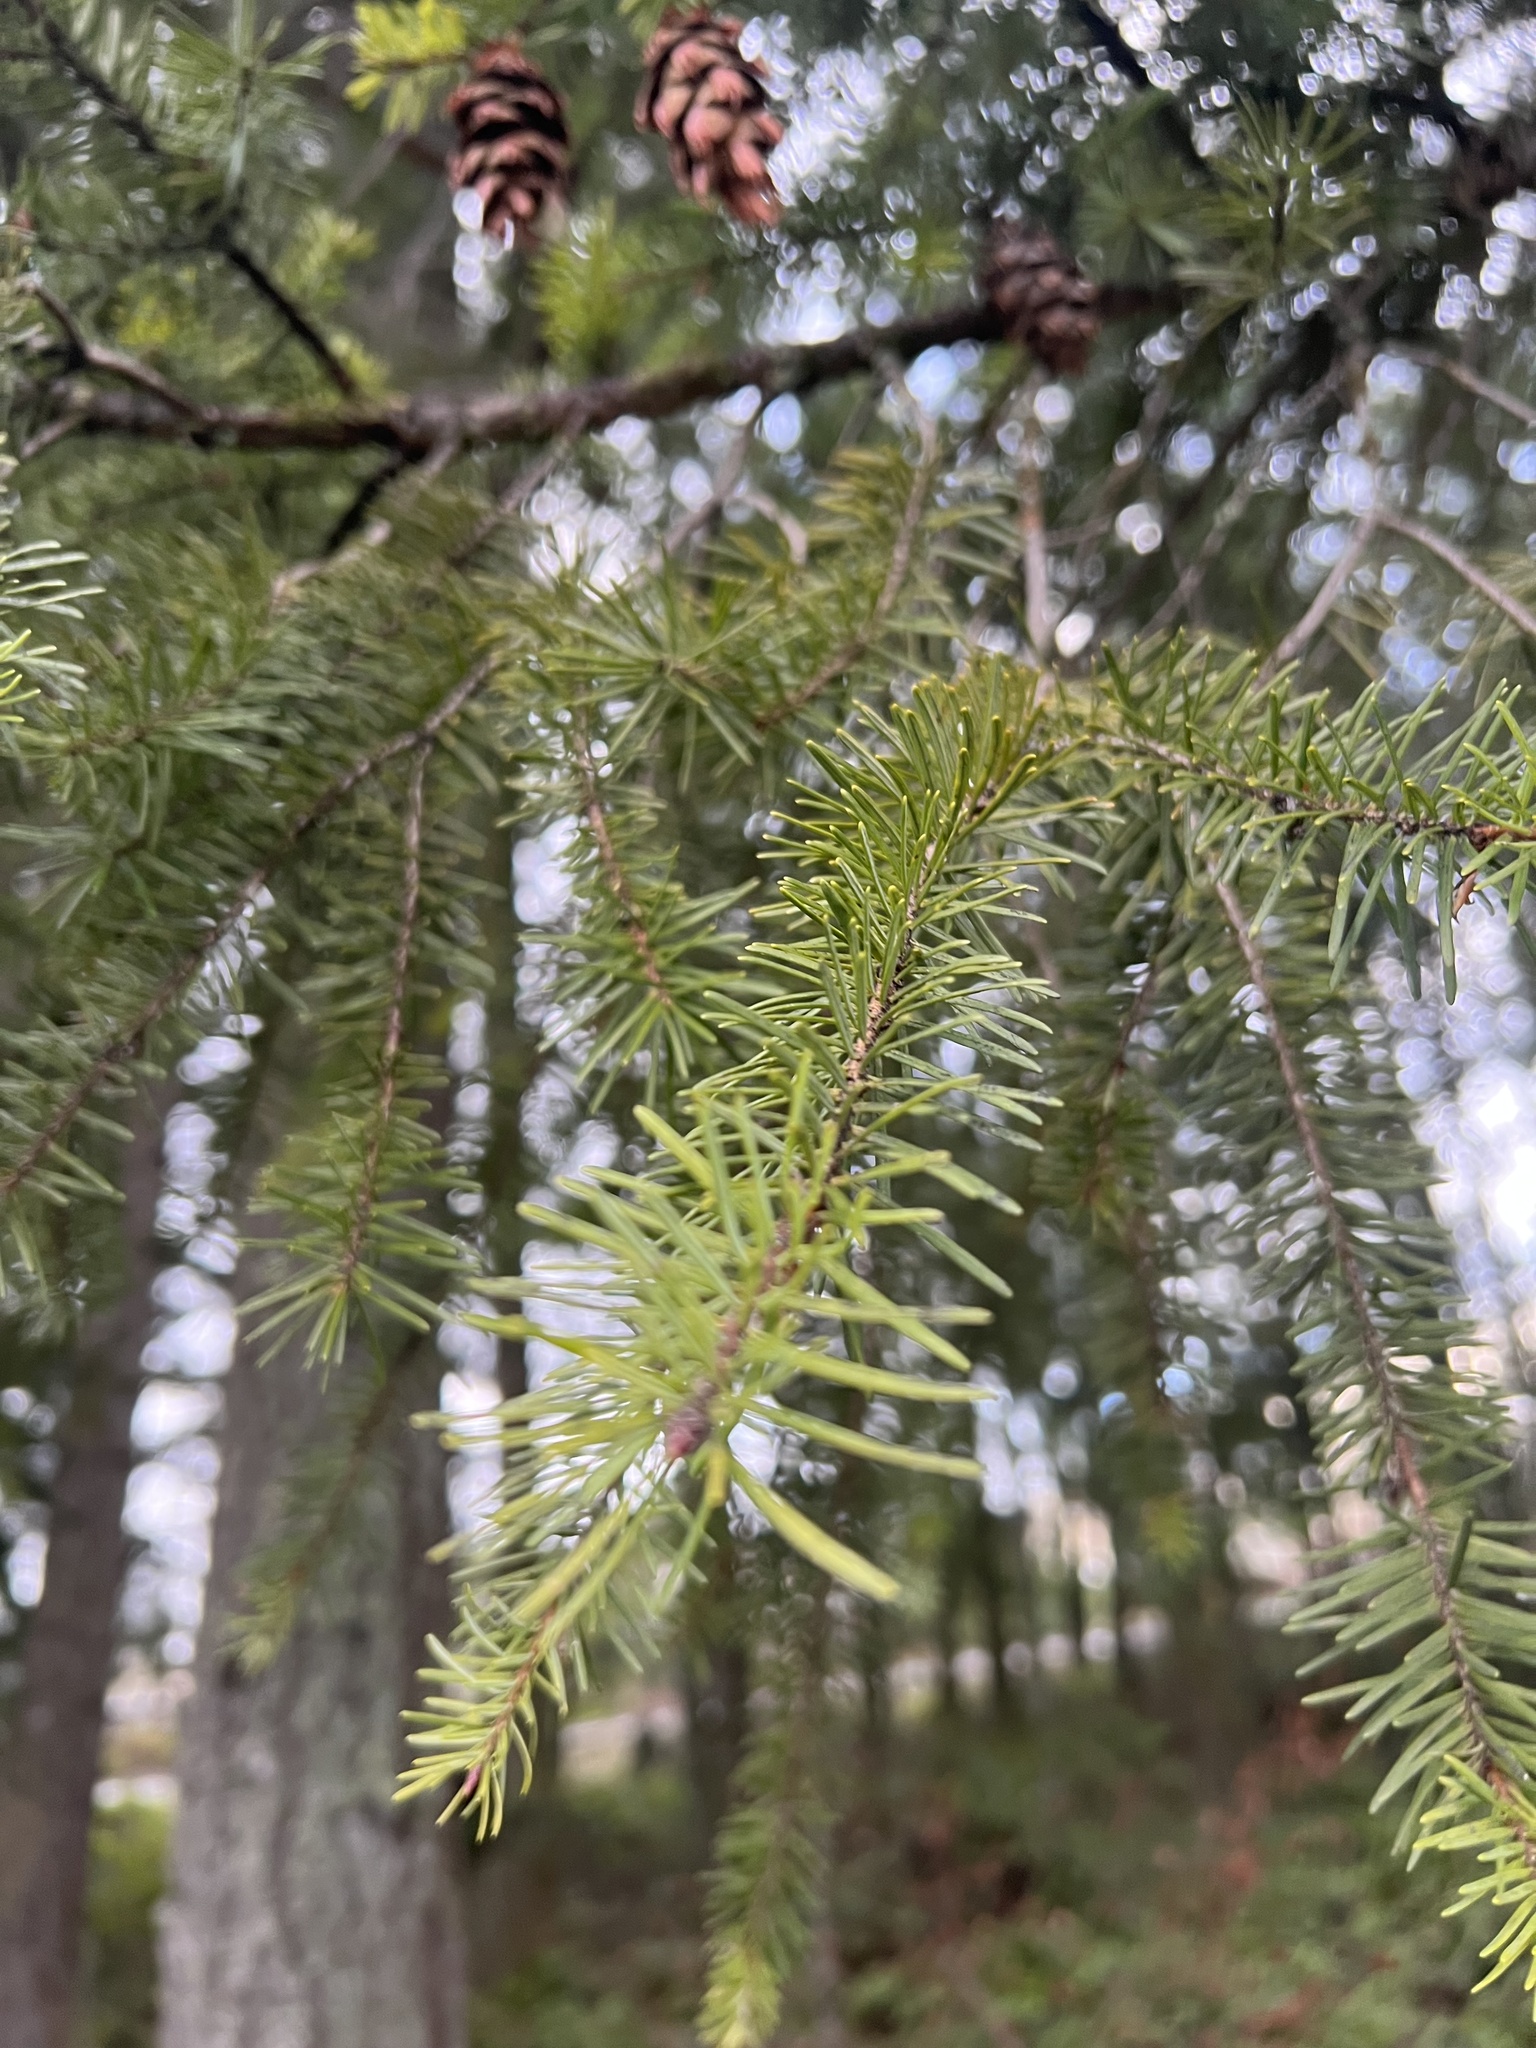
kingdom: Plantae
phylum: Tracheophyta
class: Pinopsida
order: Pinales
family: Pinaceae
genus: Pseudotsuga
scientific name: Pseudotsuga menziesii
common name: Douglas fir
